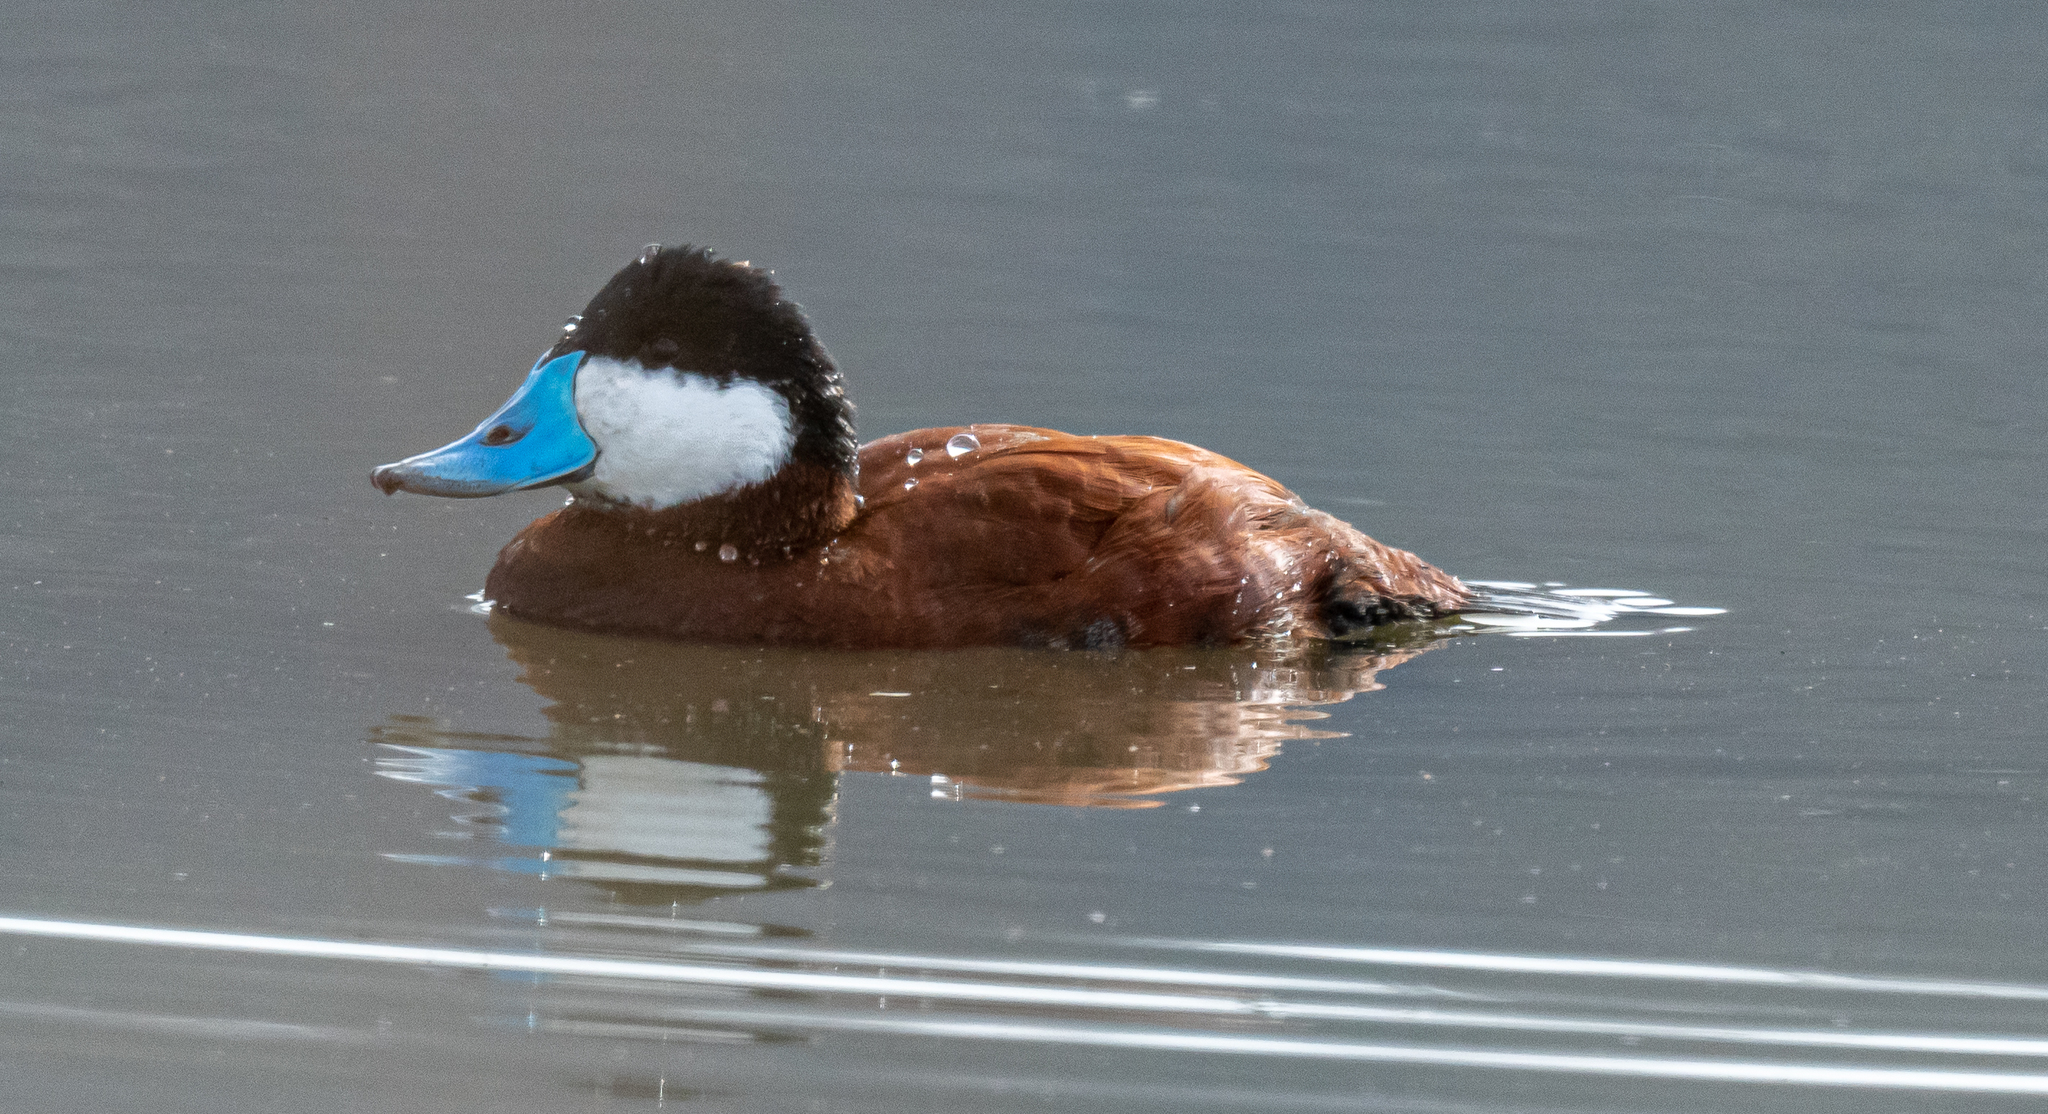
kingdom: Animalia
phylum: Chordata
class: Aves
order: Anseriformes
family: Anatidae
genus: Oxyura
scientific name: Oxyura jamaicensis
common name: Ruddy duck
